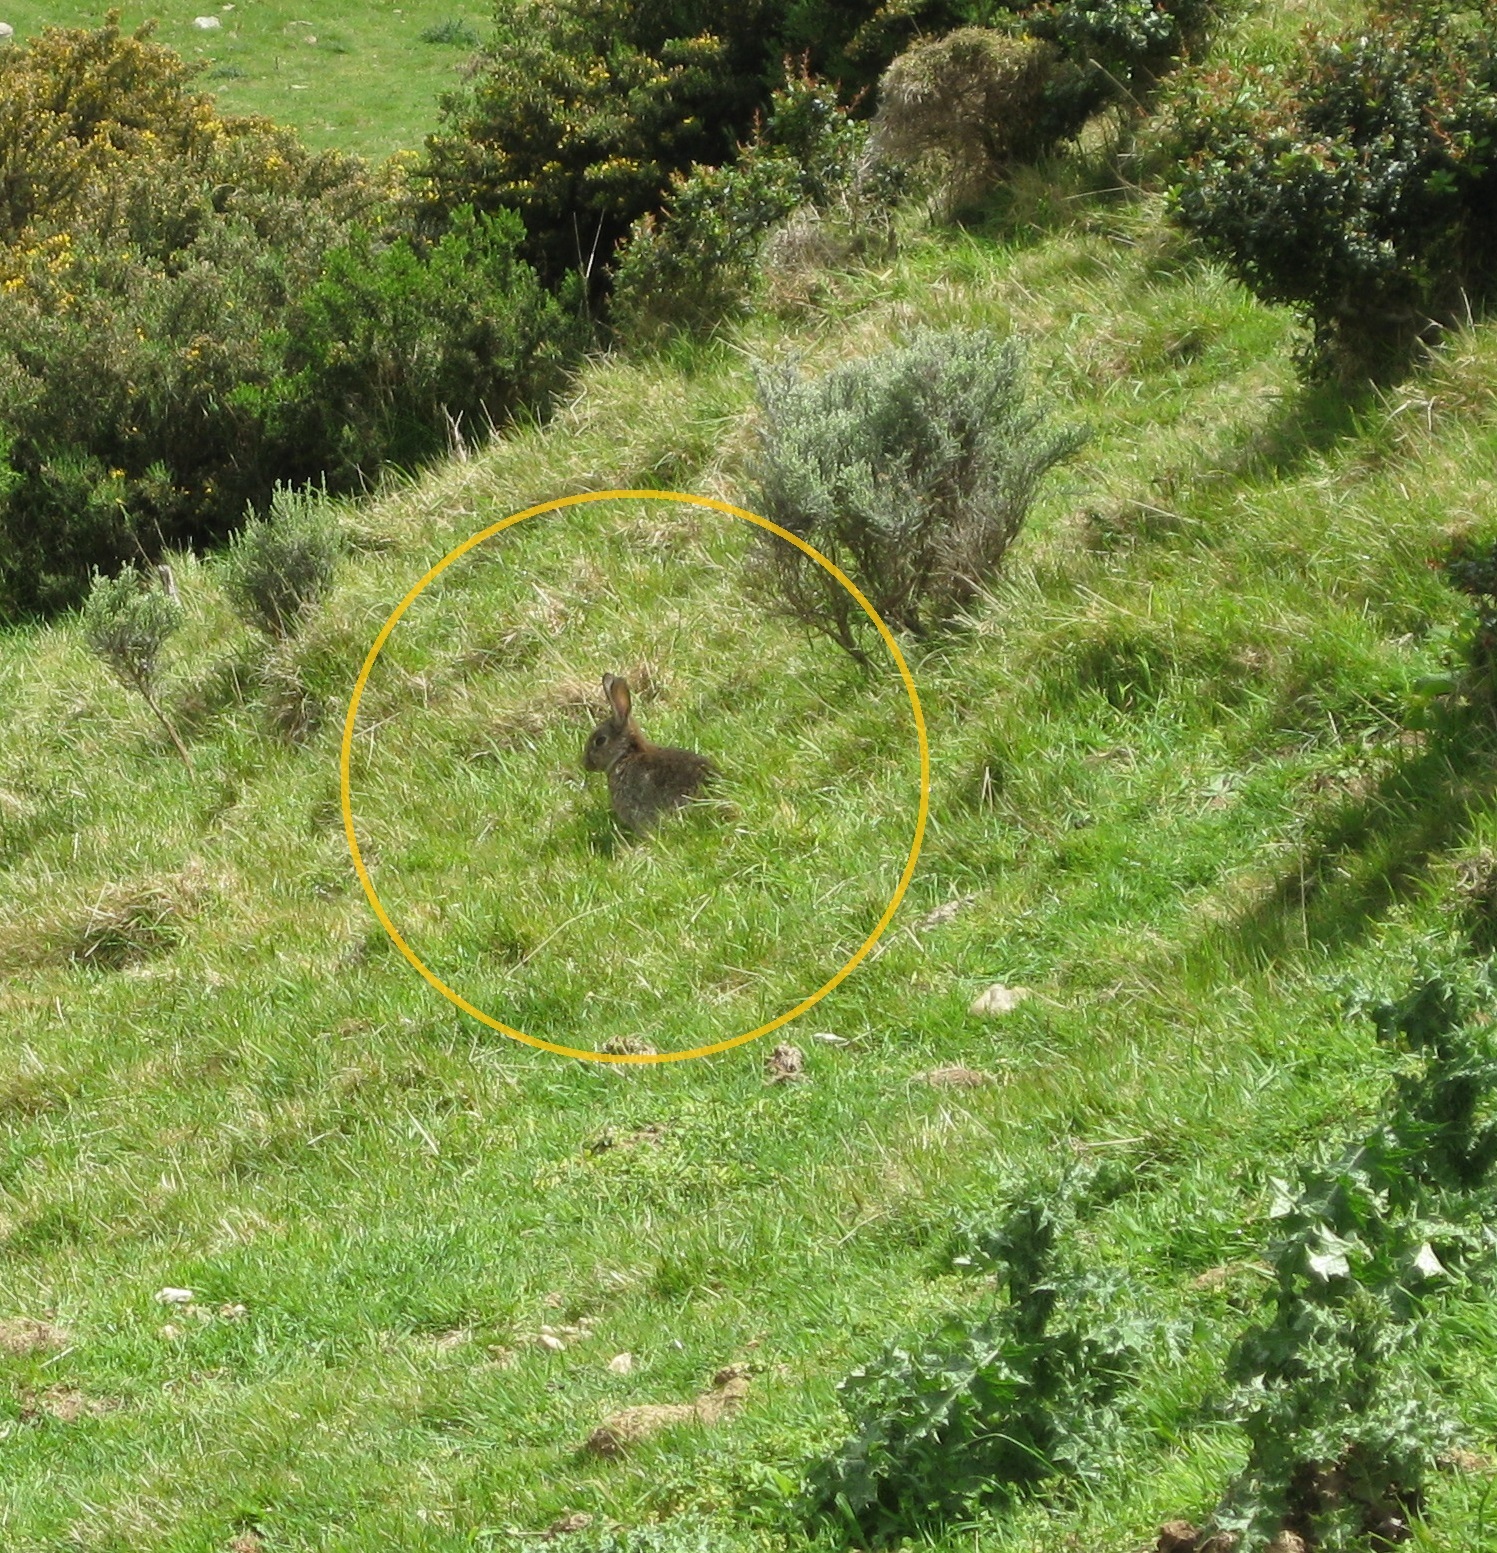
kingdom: Animalia
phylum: Chordata
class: Mammalia
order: Lagomorpha
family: Leporidae
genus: Oryctolagus
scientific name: Oryctolagus cuniculus
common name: European rabbit
